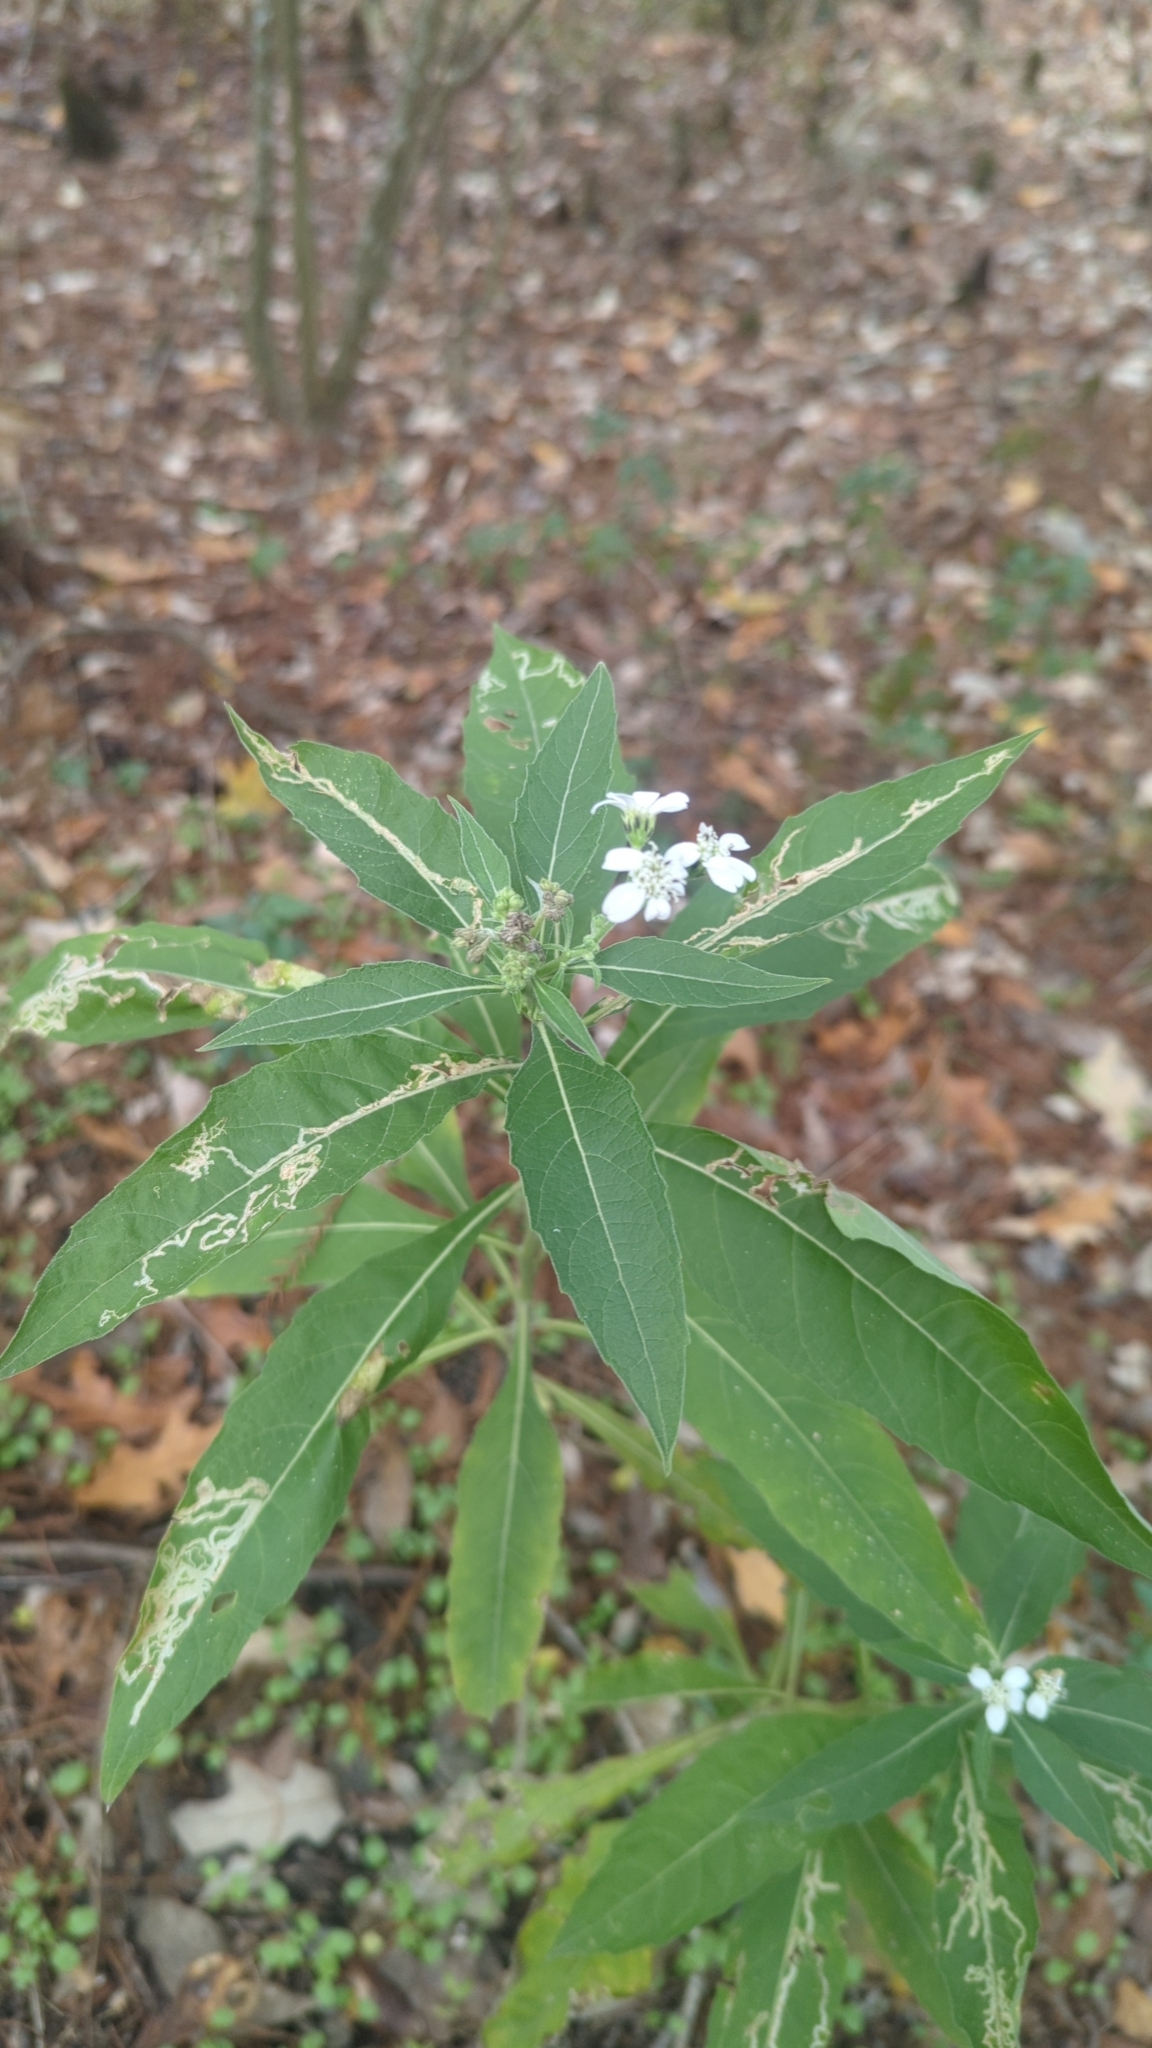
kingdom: Plantae
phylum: Tracheophyta
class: Magnoliopsida
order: Asterales
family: Asteraceae
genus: Verbesina
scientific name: Verbesina virginica
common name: Frostweed
